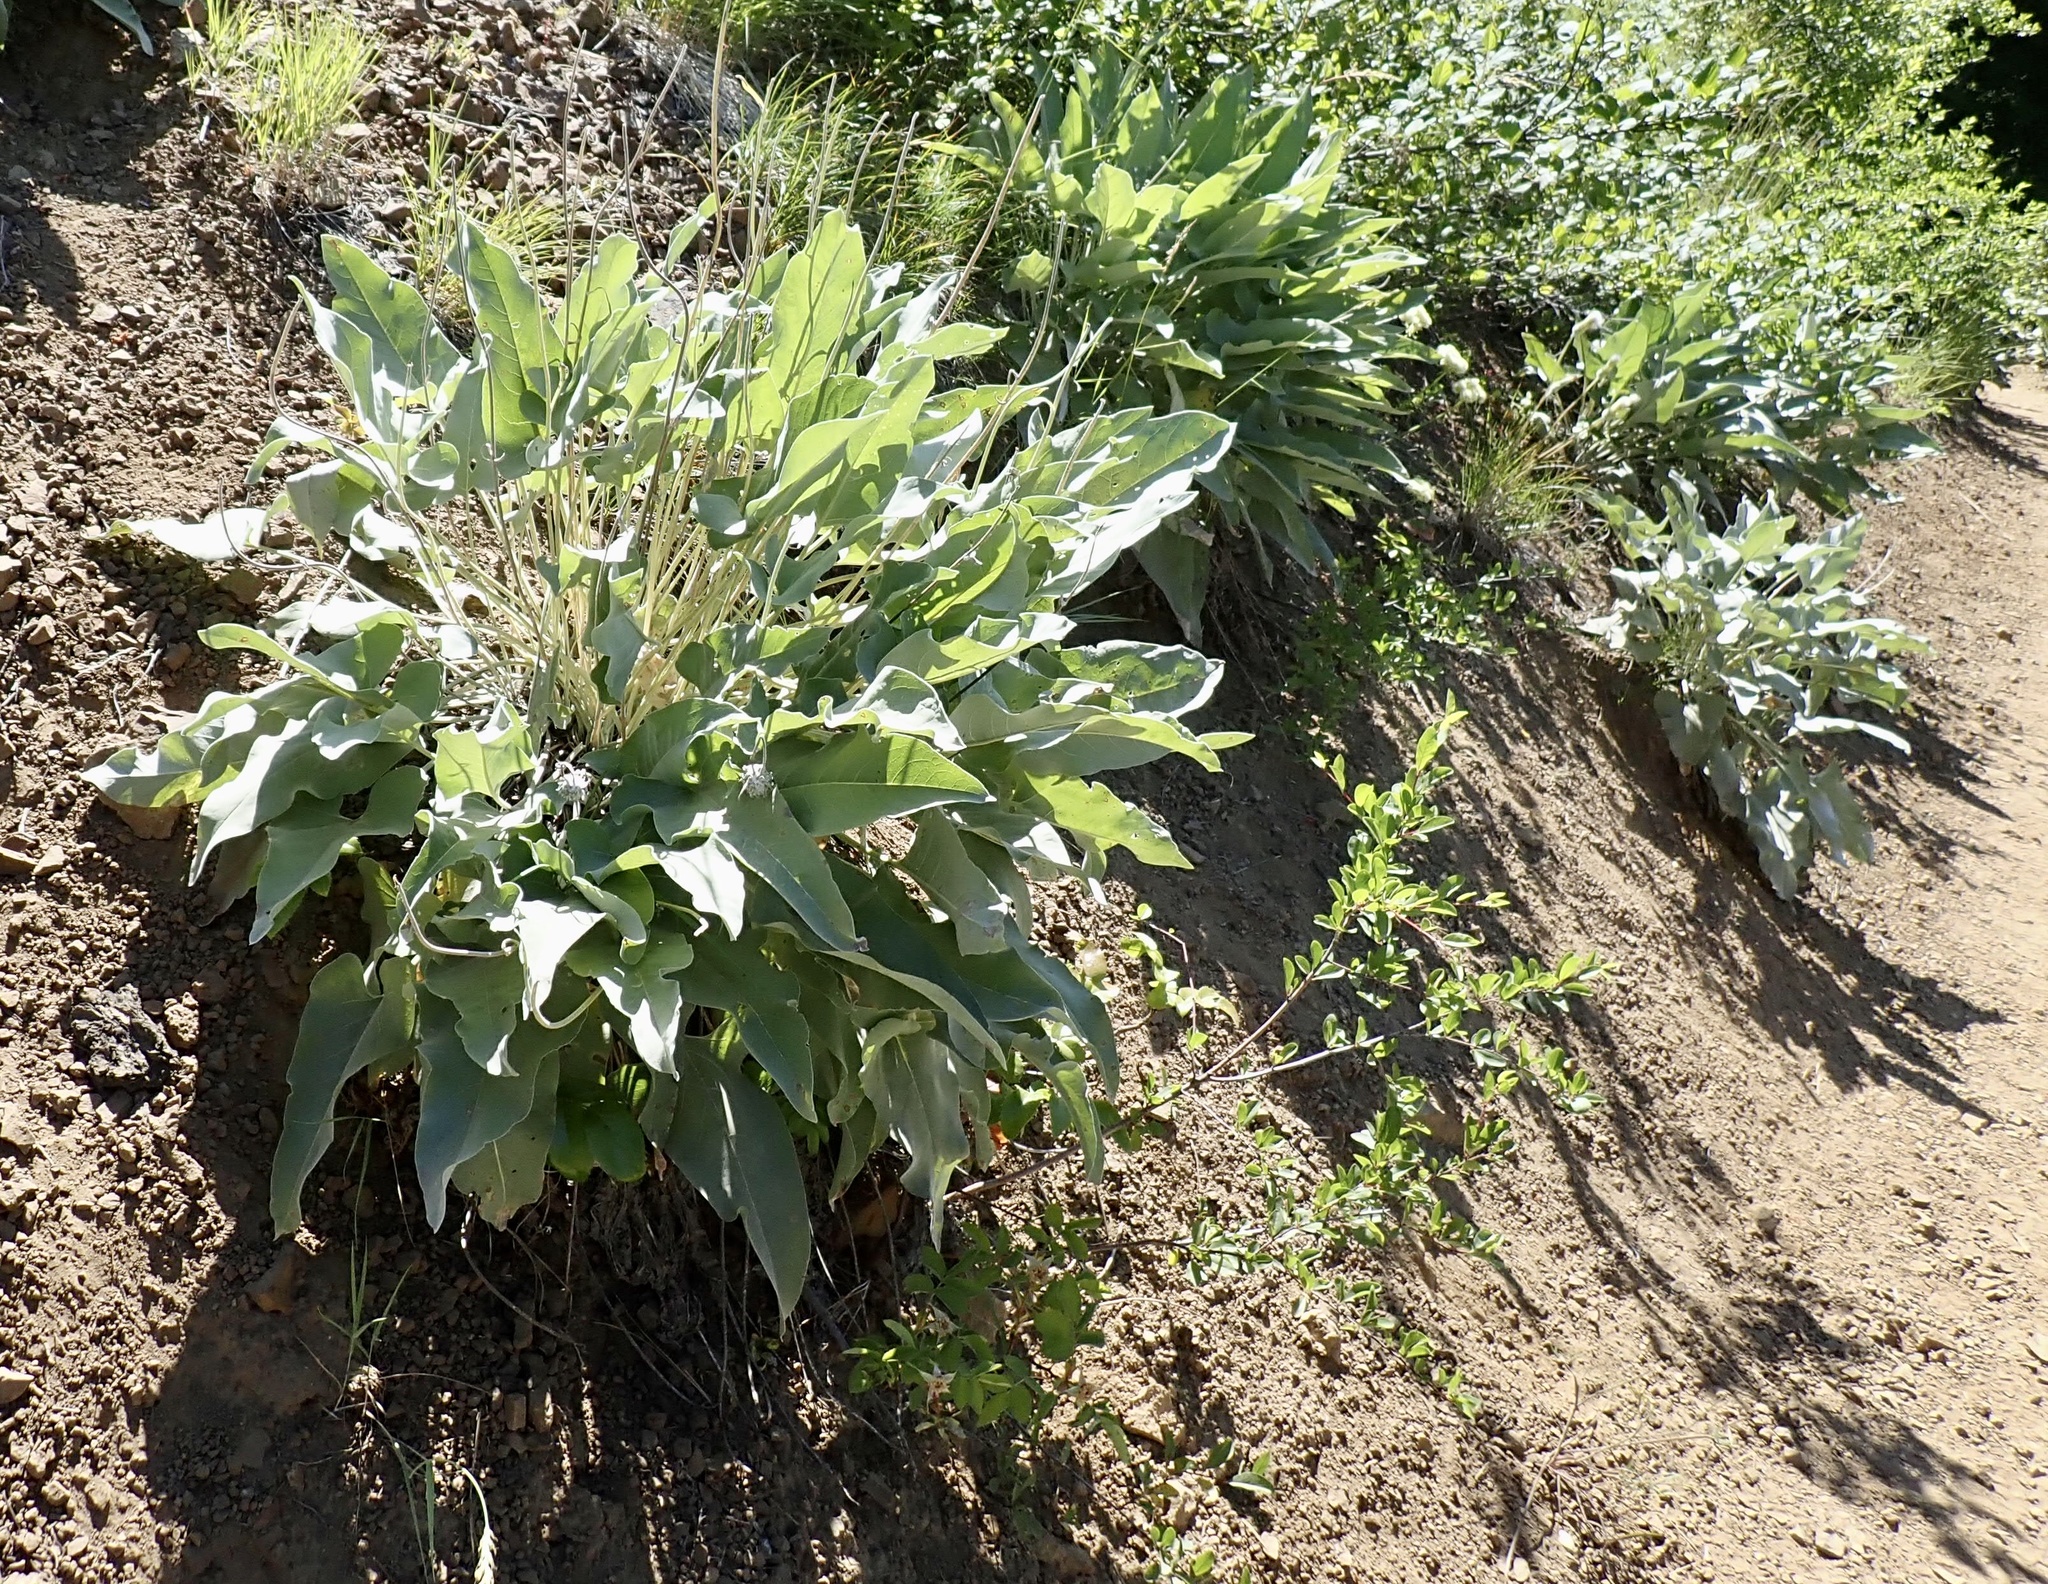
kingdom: Plantae
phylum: Tracheophyta
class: Magnoliopsida
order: Asterales
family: Asteraceae
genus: Wyethia
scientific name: Wyethia sagittata
